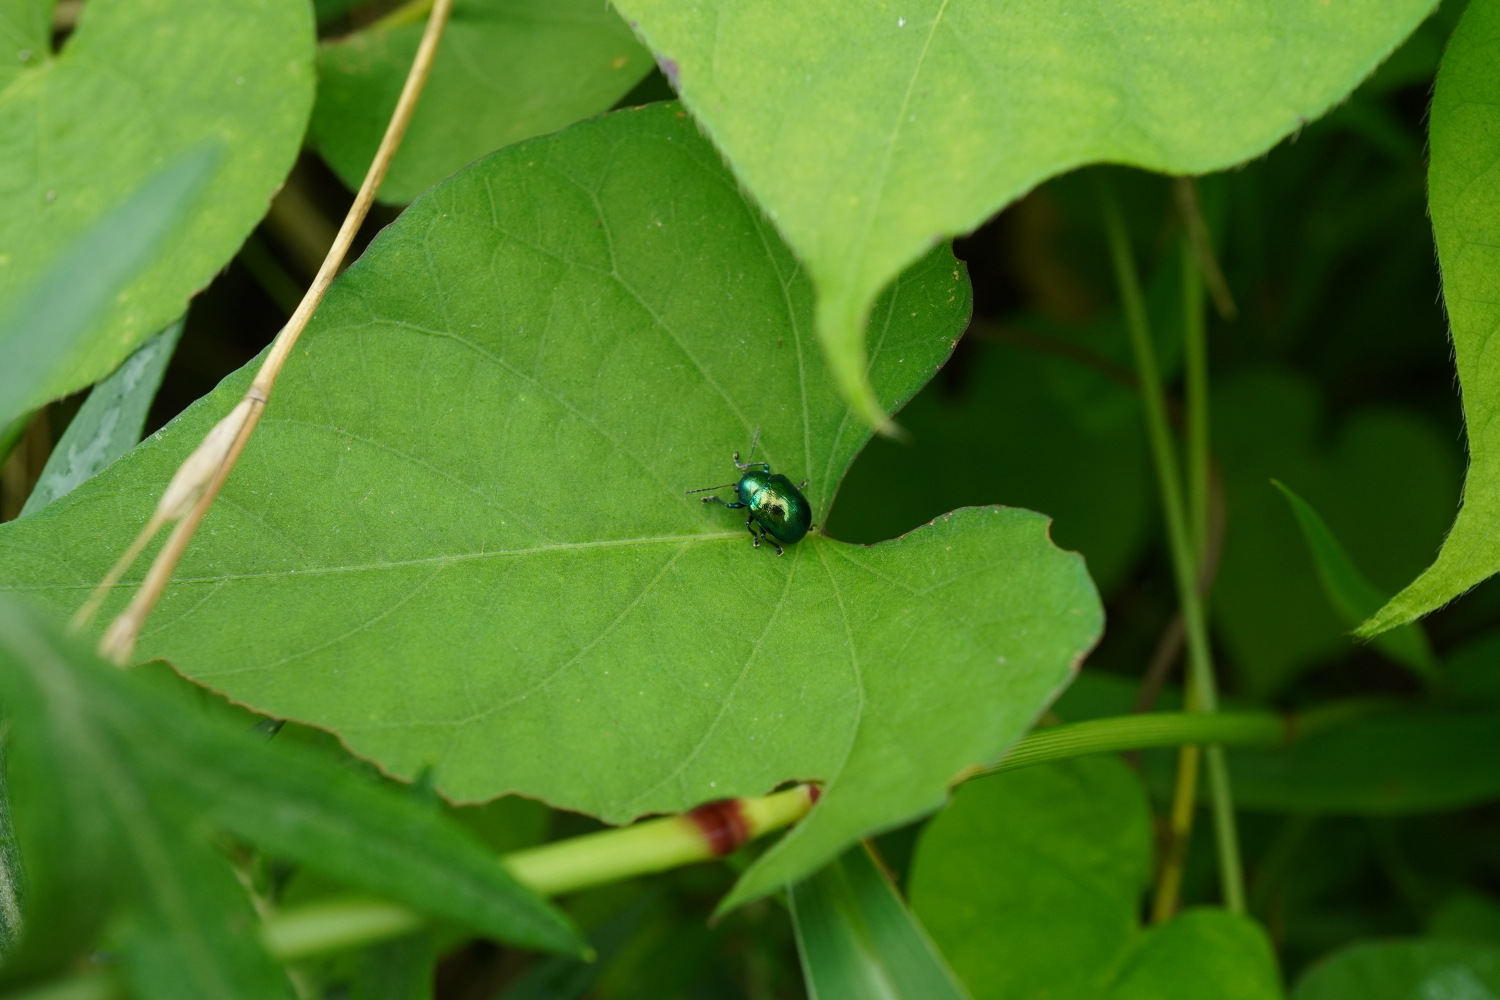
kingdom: Animalia
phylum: Arthropoda
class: Insecta
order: Coleoptera
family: Chrysomelidae
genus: Colasposoma
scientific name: Colasposoma dauricum
